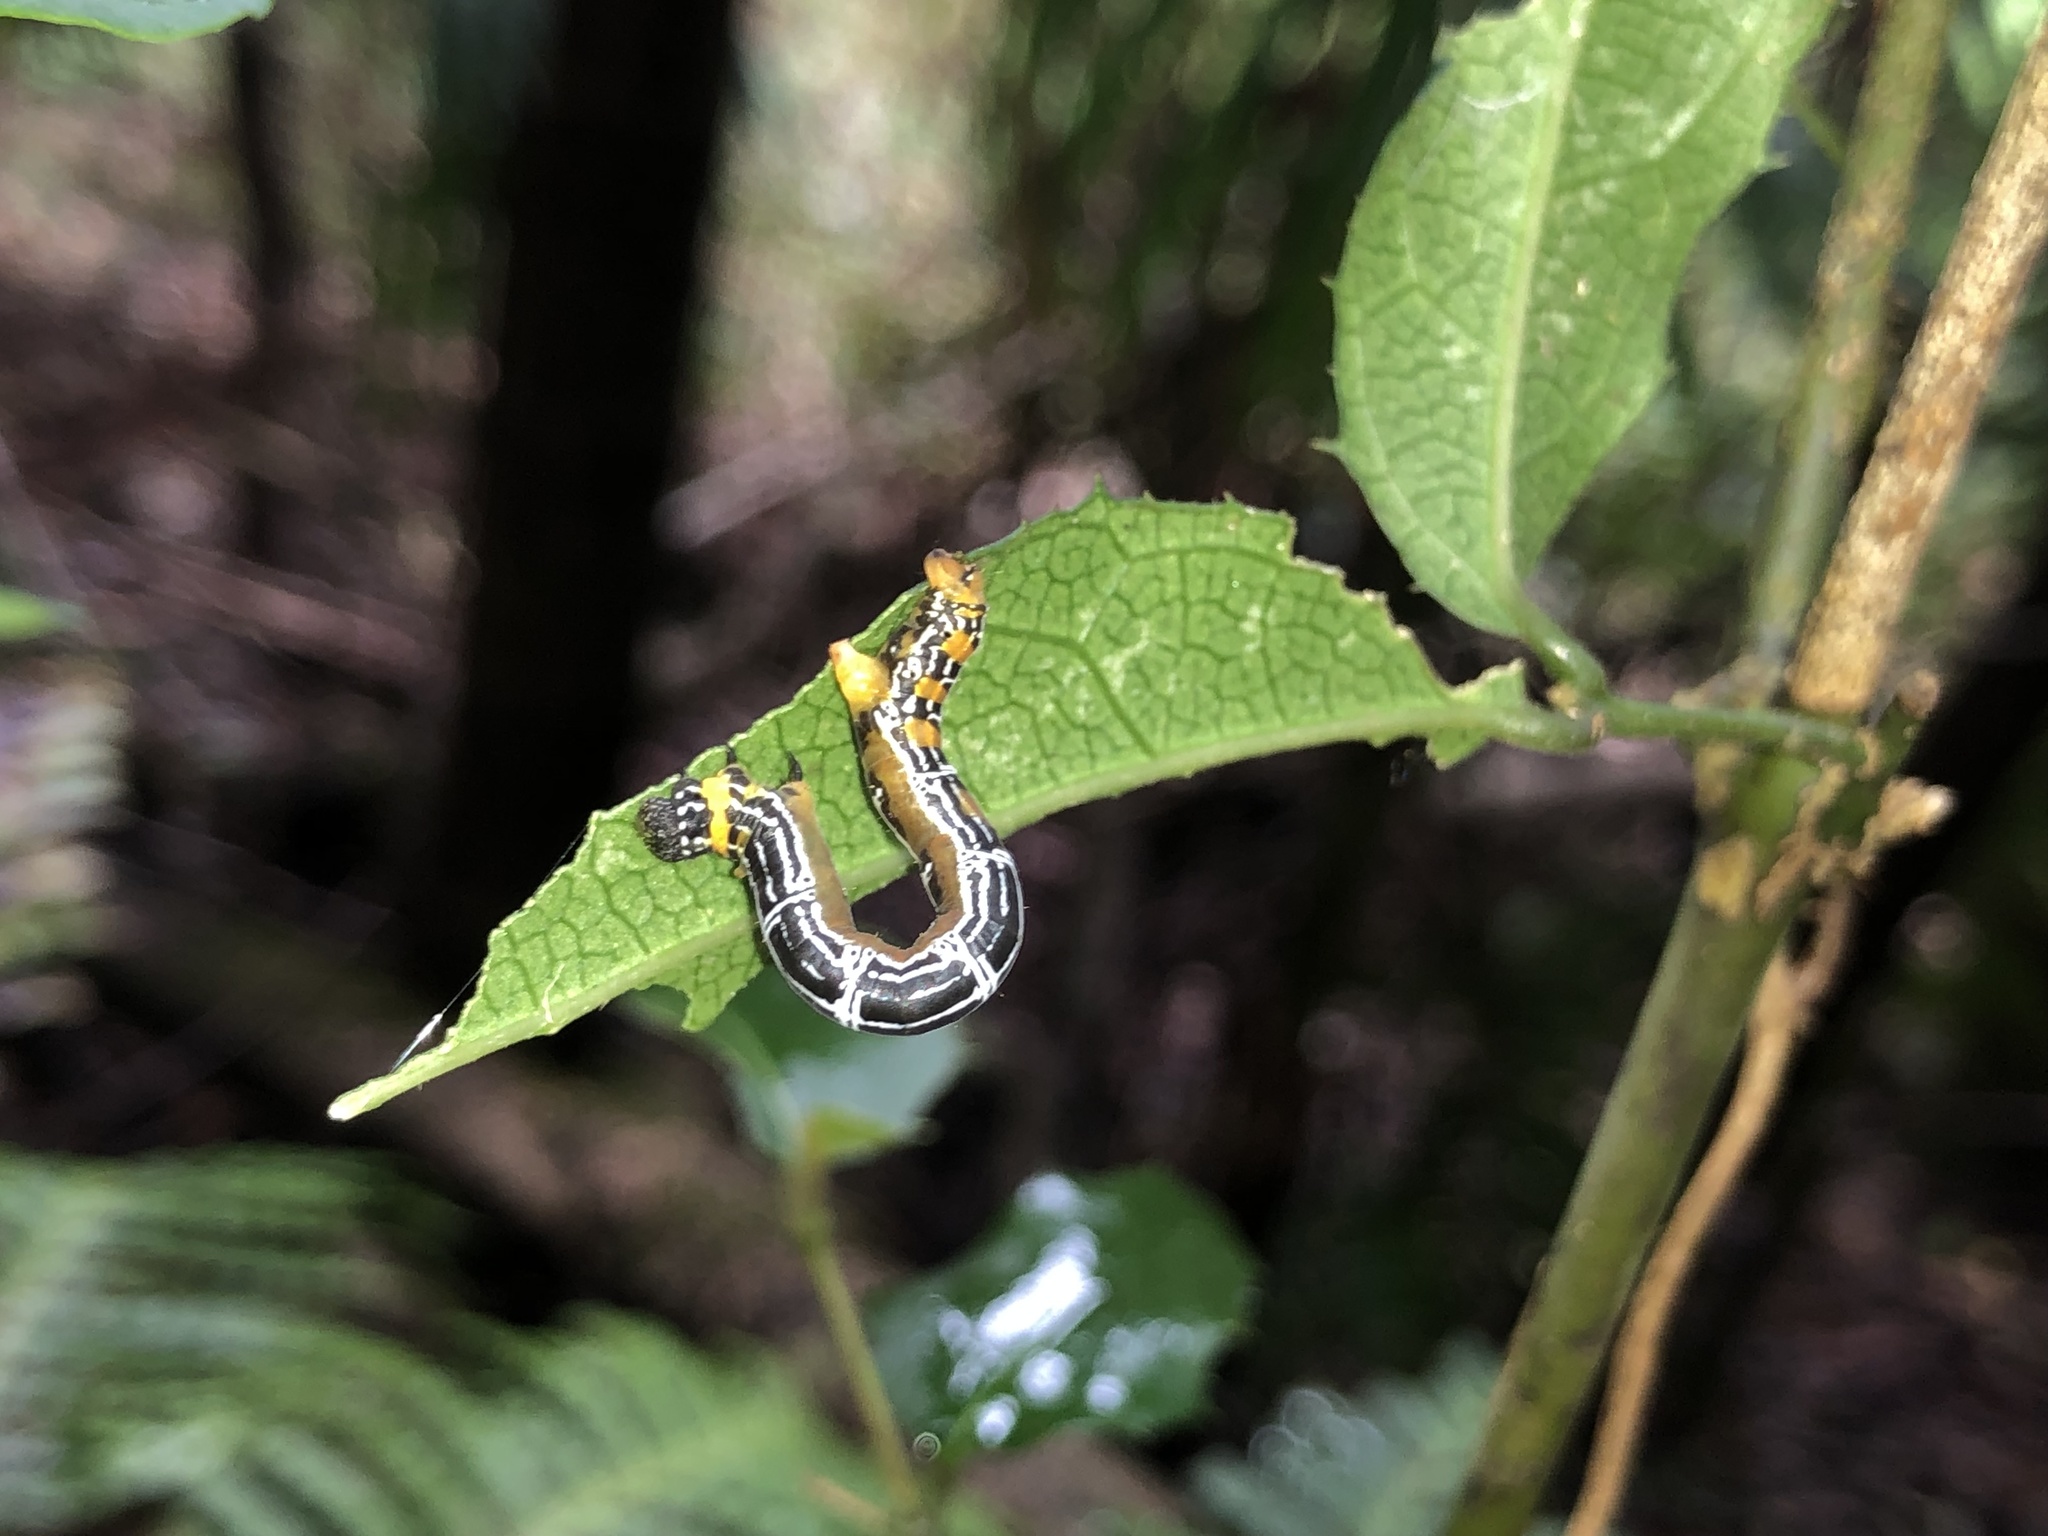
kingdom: Animalia
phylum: Arthropoda
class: Insecta
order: Lepidoptera
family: Geometridae
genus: Bracca
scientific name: Bracca matutinata
